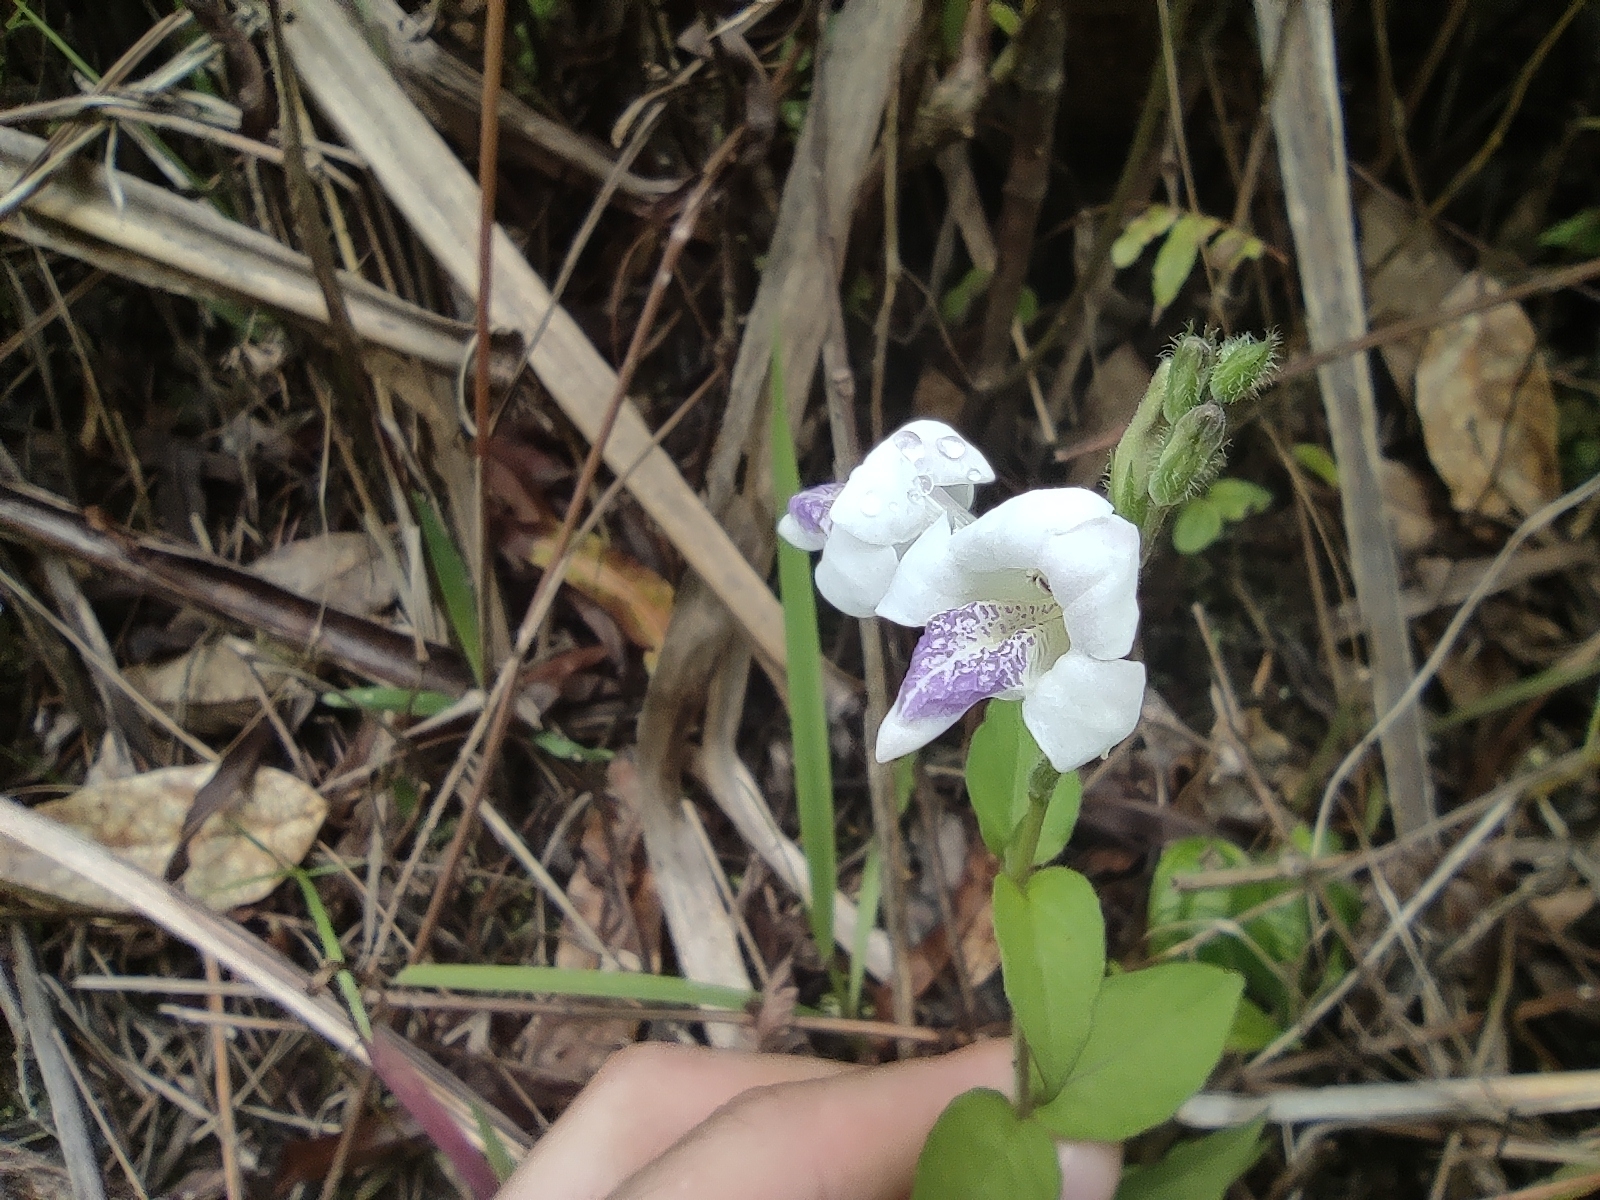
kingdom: Plantae
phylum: Tracheophyta
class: Magnoliopsida
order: Lamiales
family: Acanthaceae
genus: Asystasia
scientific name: Asystasia intrusa
